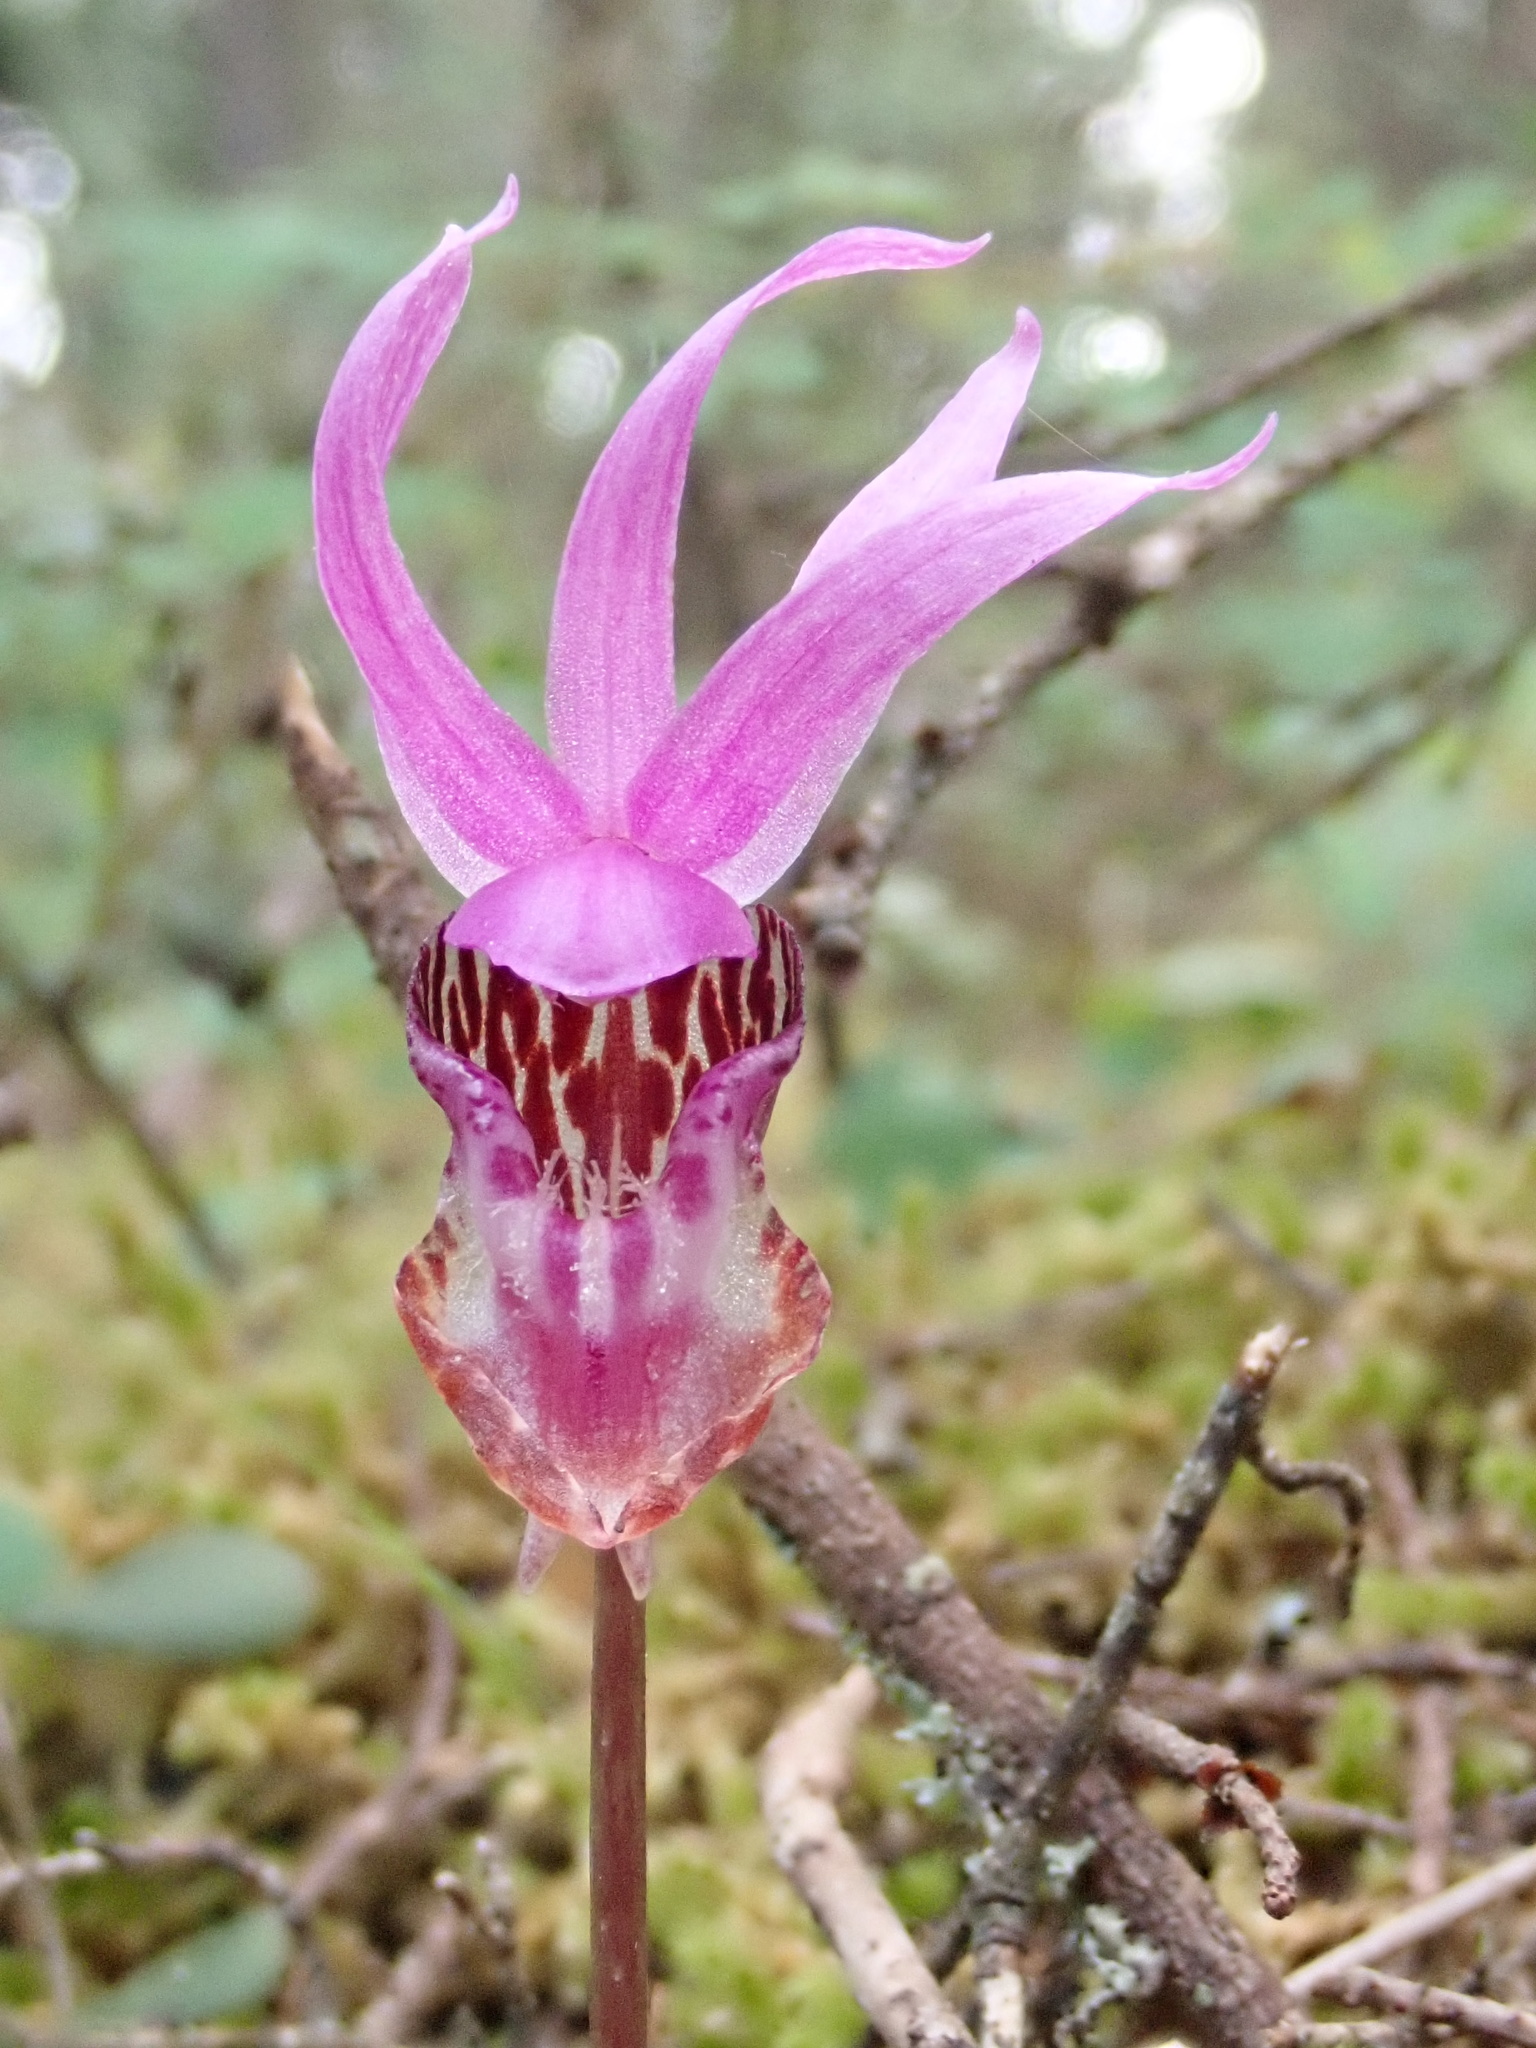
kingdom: Plantae
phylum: Tracheophyta
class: Liliopsida
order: Asparagales
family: Orchidaceae
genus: Calypso
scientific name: Calypso bulbosa
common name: Calypso
